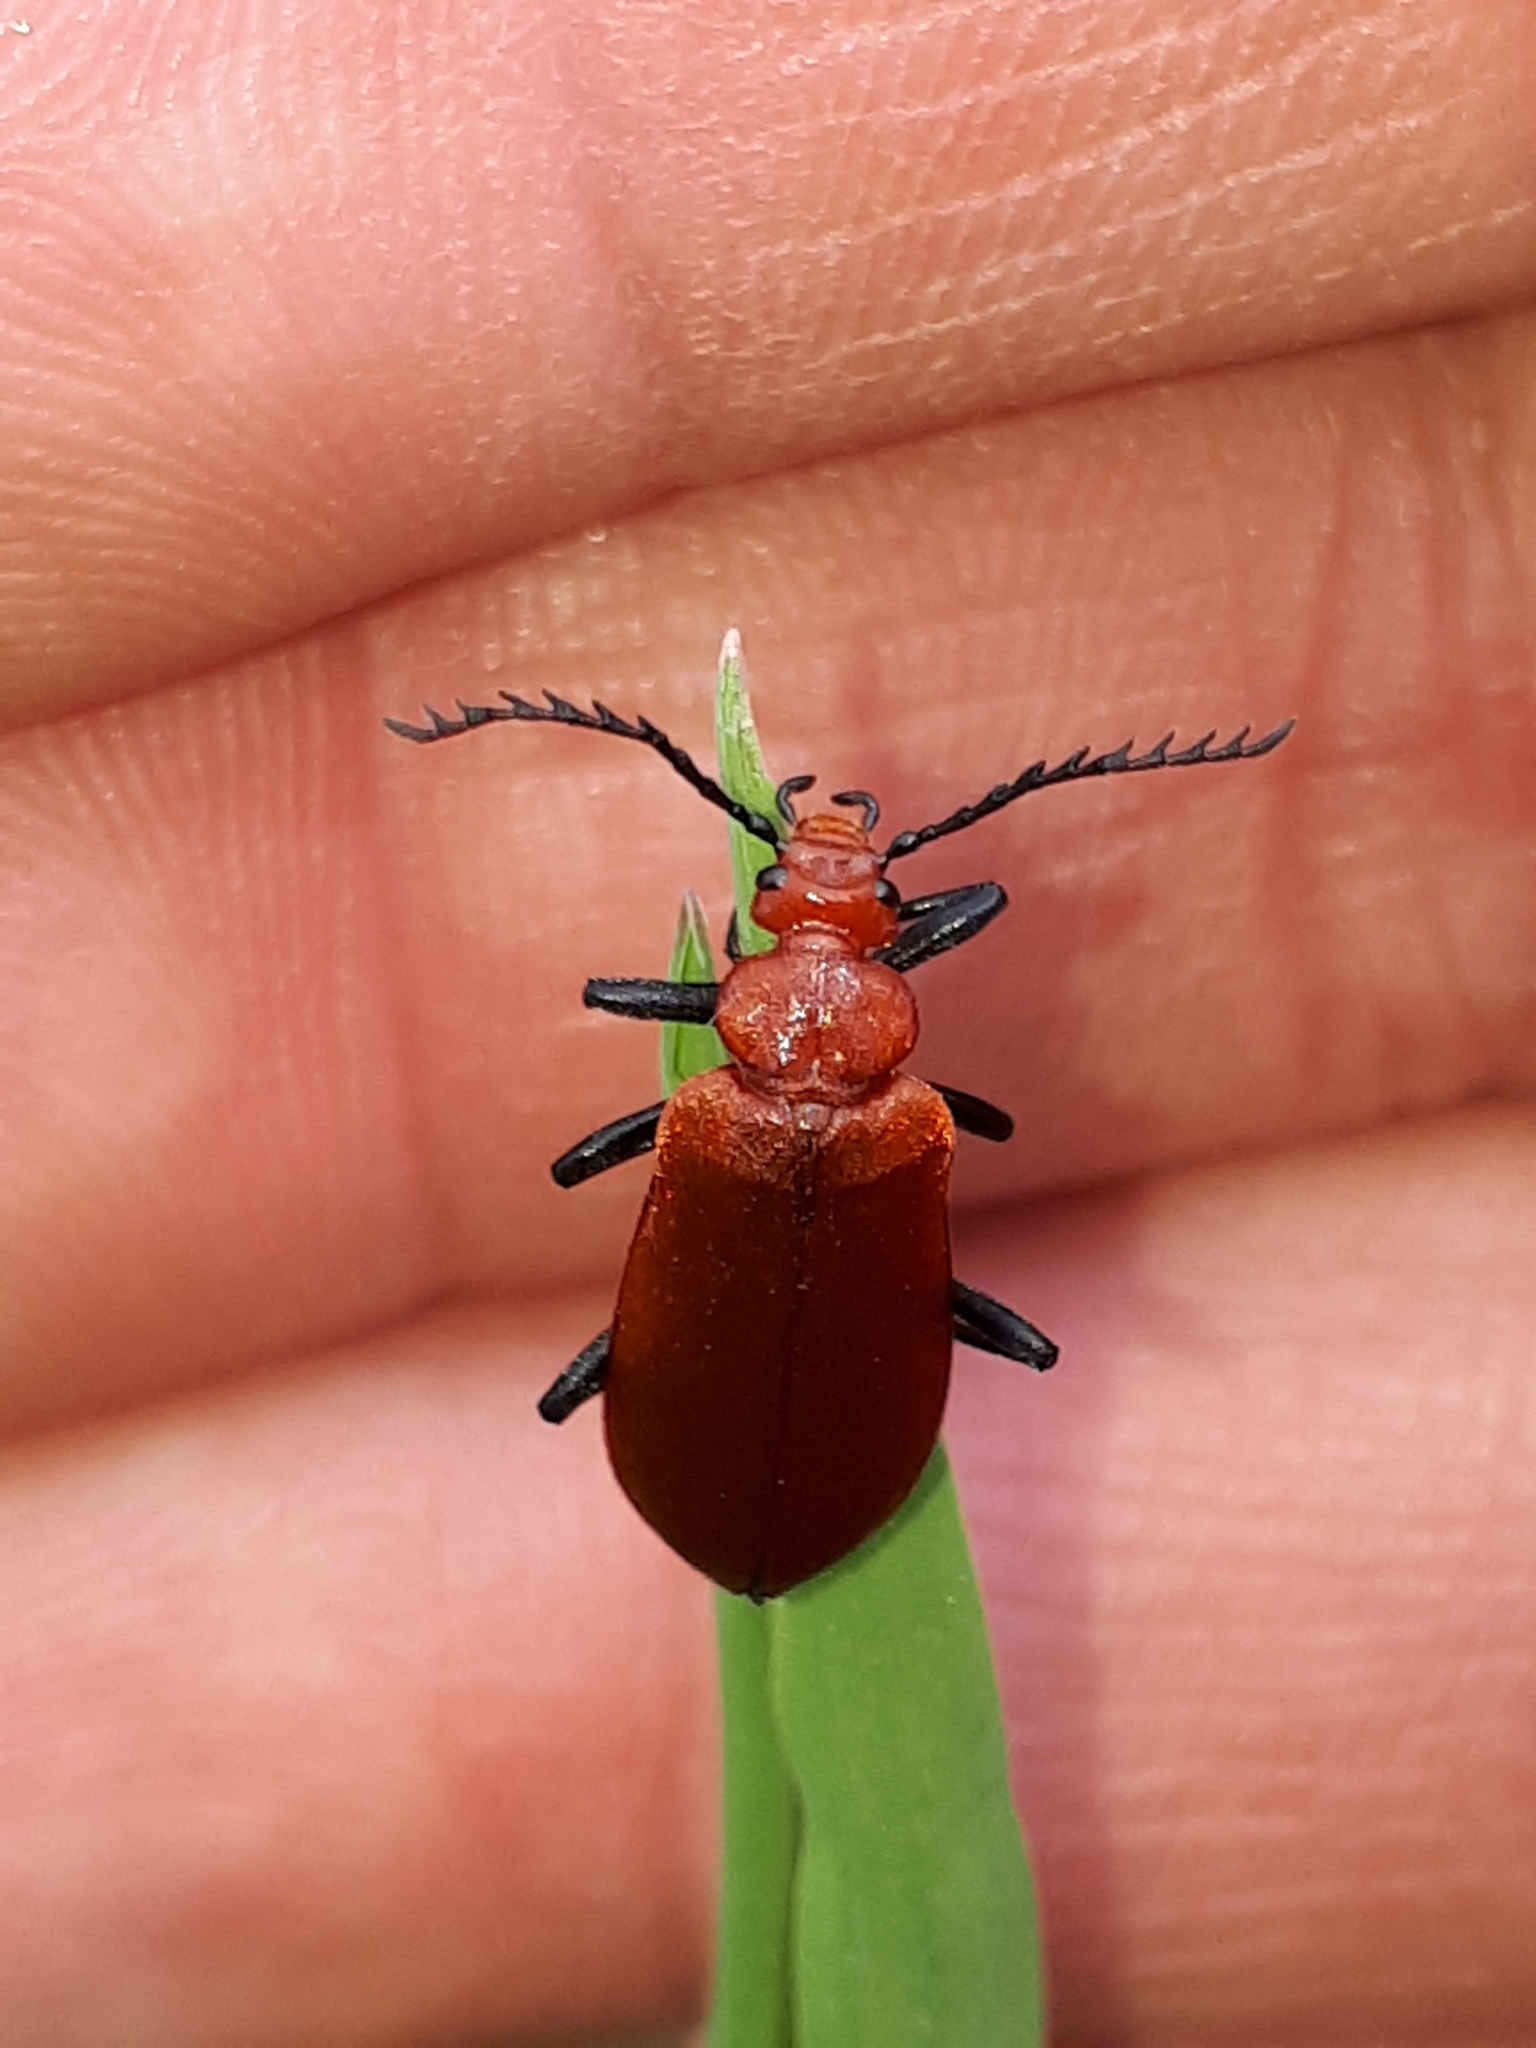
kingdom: Animalia
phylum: Arthropoda
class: Insecta
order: Coleoptera
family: Pyrochroidae
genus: Pyrochroa
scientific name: Pyrochroa serraticornis
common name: Red-headed cardinal beetle
